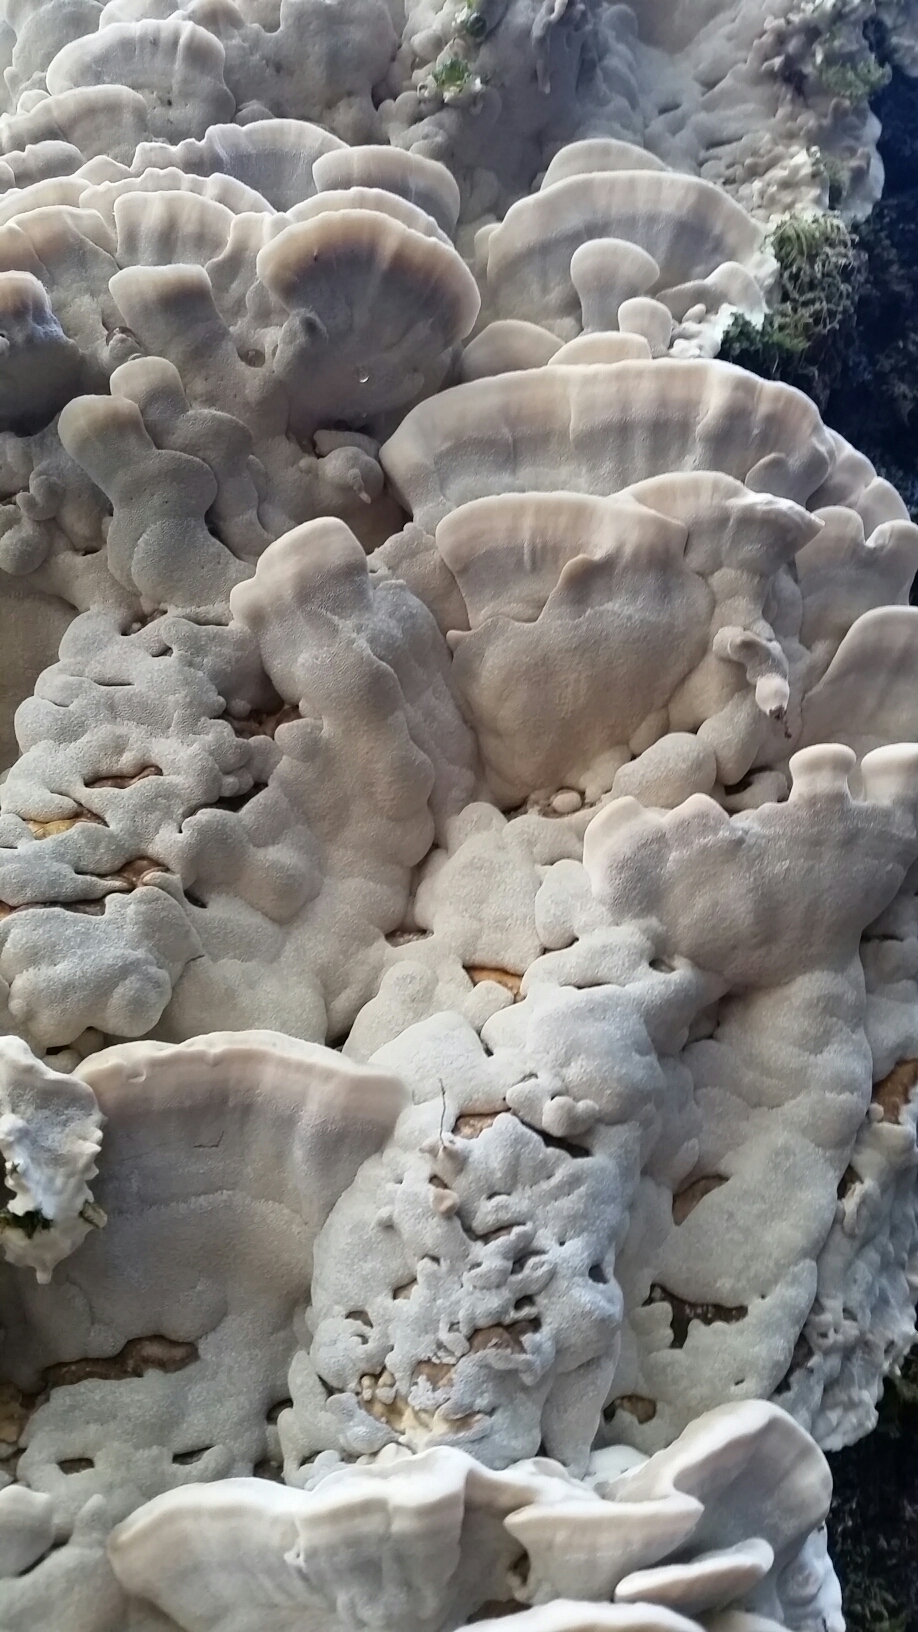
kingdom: Fungi
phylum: Basidiomycota
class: Agaricomycetes
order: Polyporales
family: Phanerochaetaceae
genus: Bjerkandera
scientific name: Bjerkandera adusta
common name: Smoky bracket
